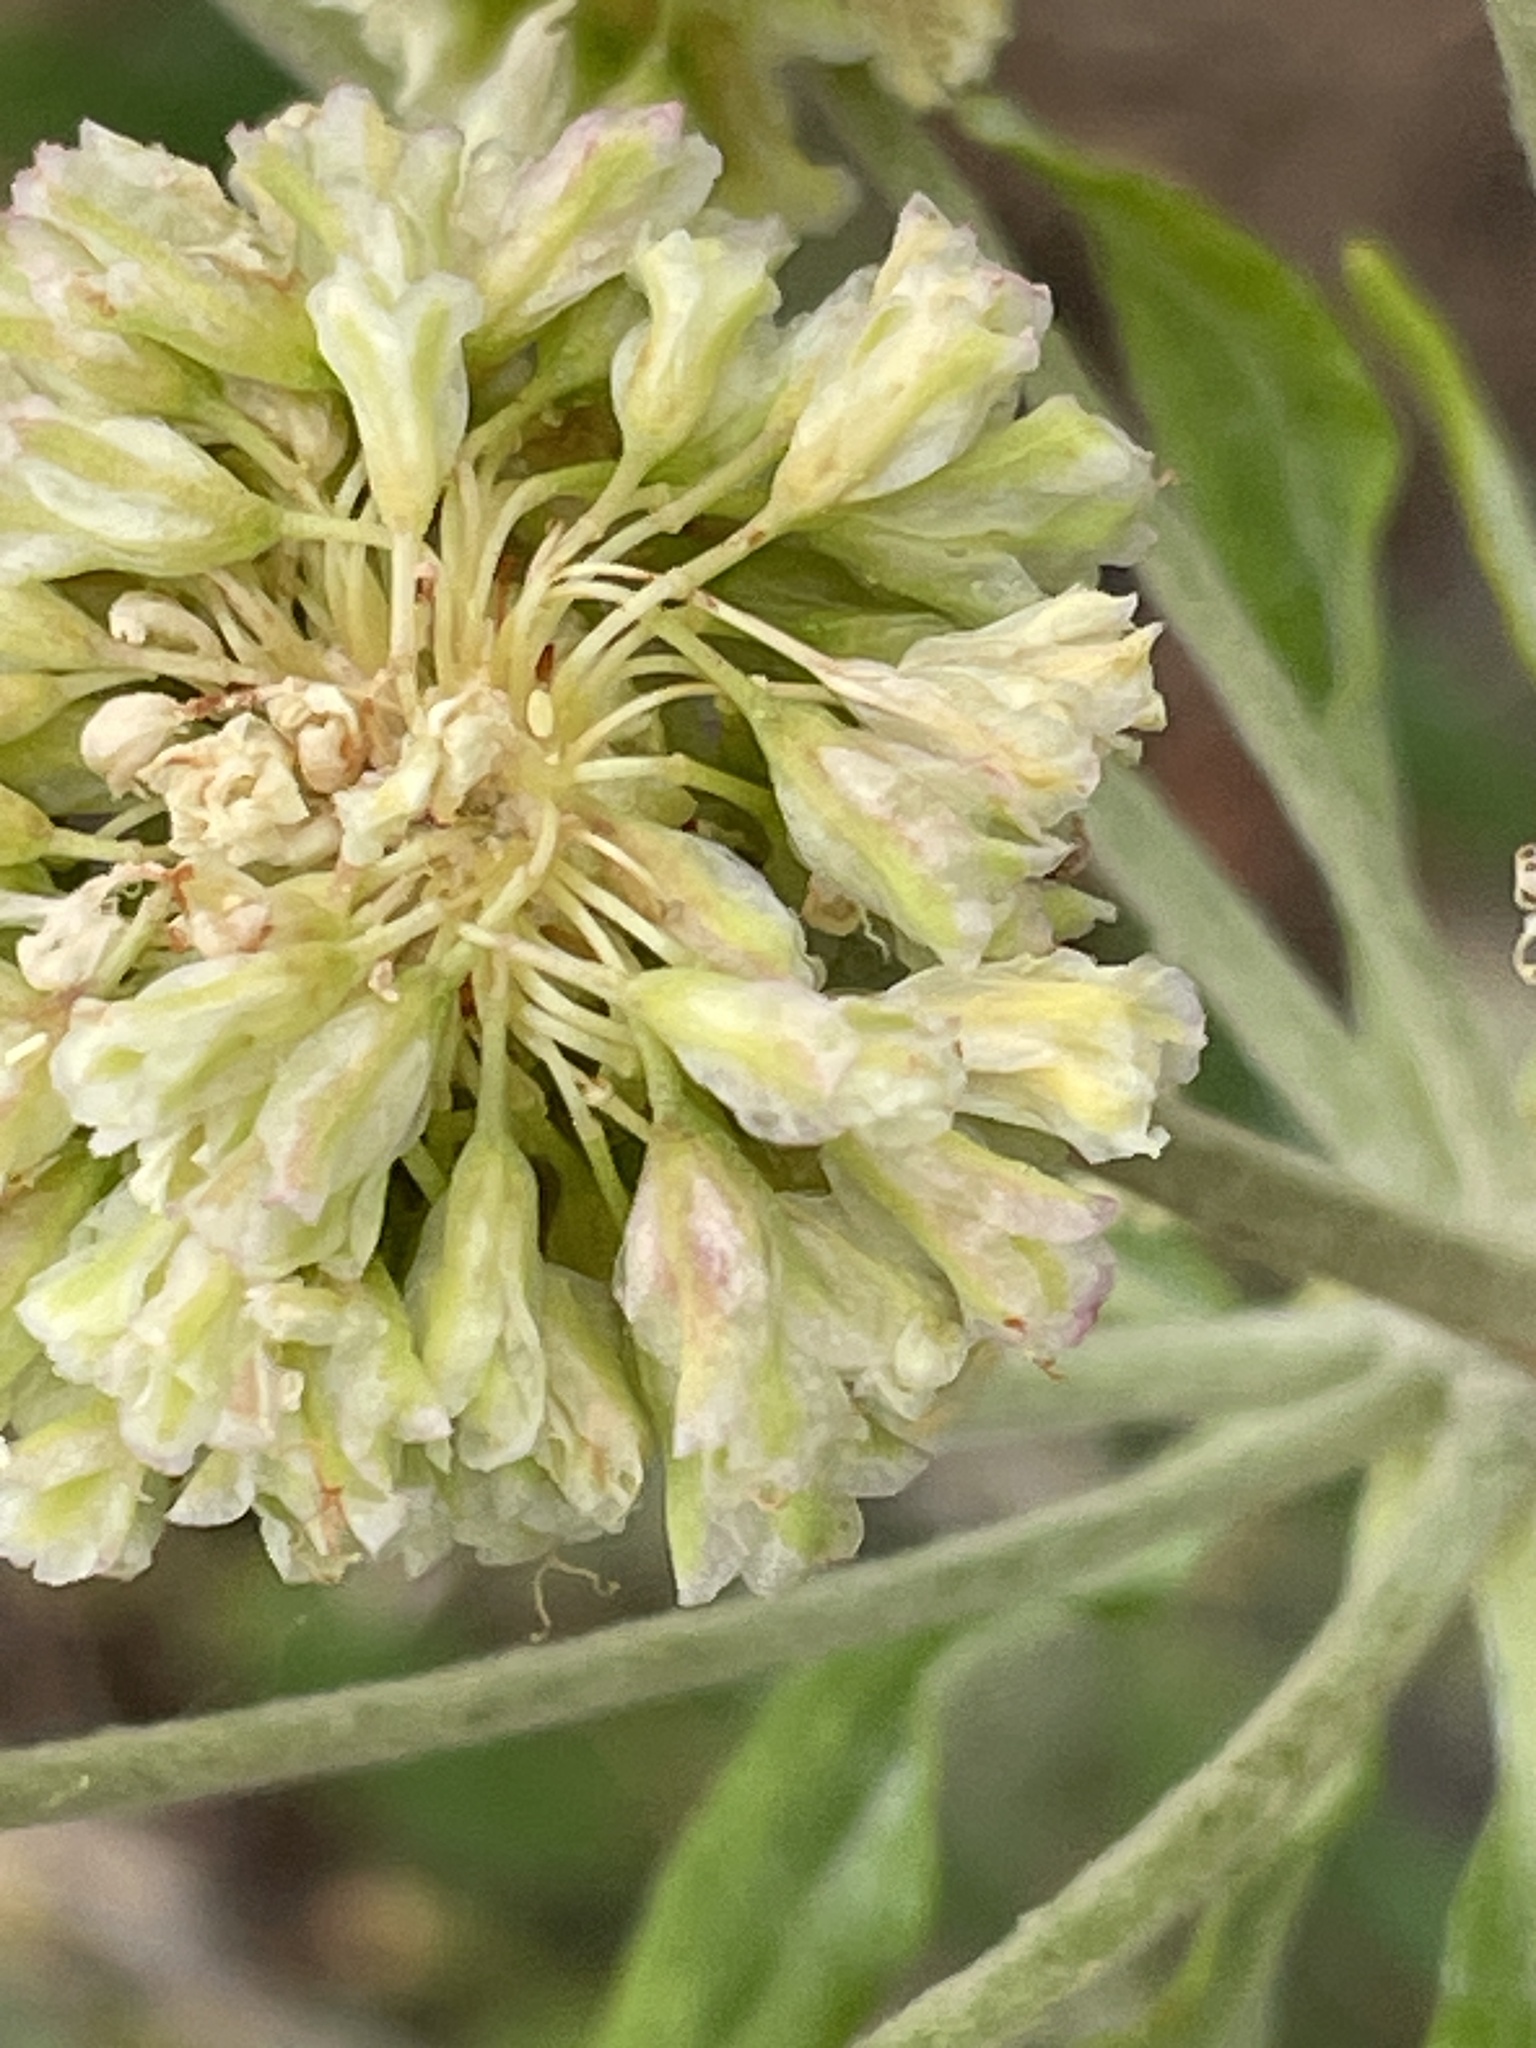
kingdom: Plantae
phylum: Tracheophyta
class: Magnoliopsida
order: Caryophyllales
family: Polygonaceae
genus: Eriogonum
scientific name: Eriogonum heracleoides
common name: Wyeth's buckwheat
